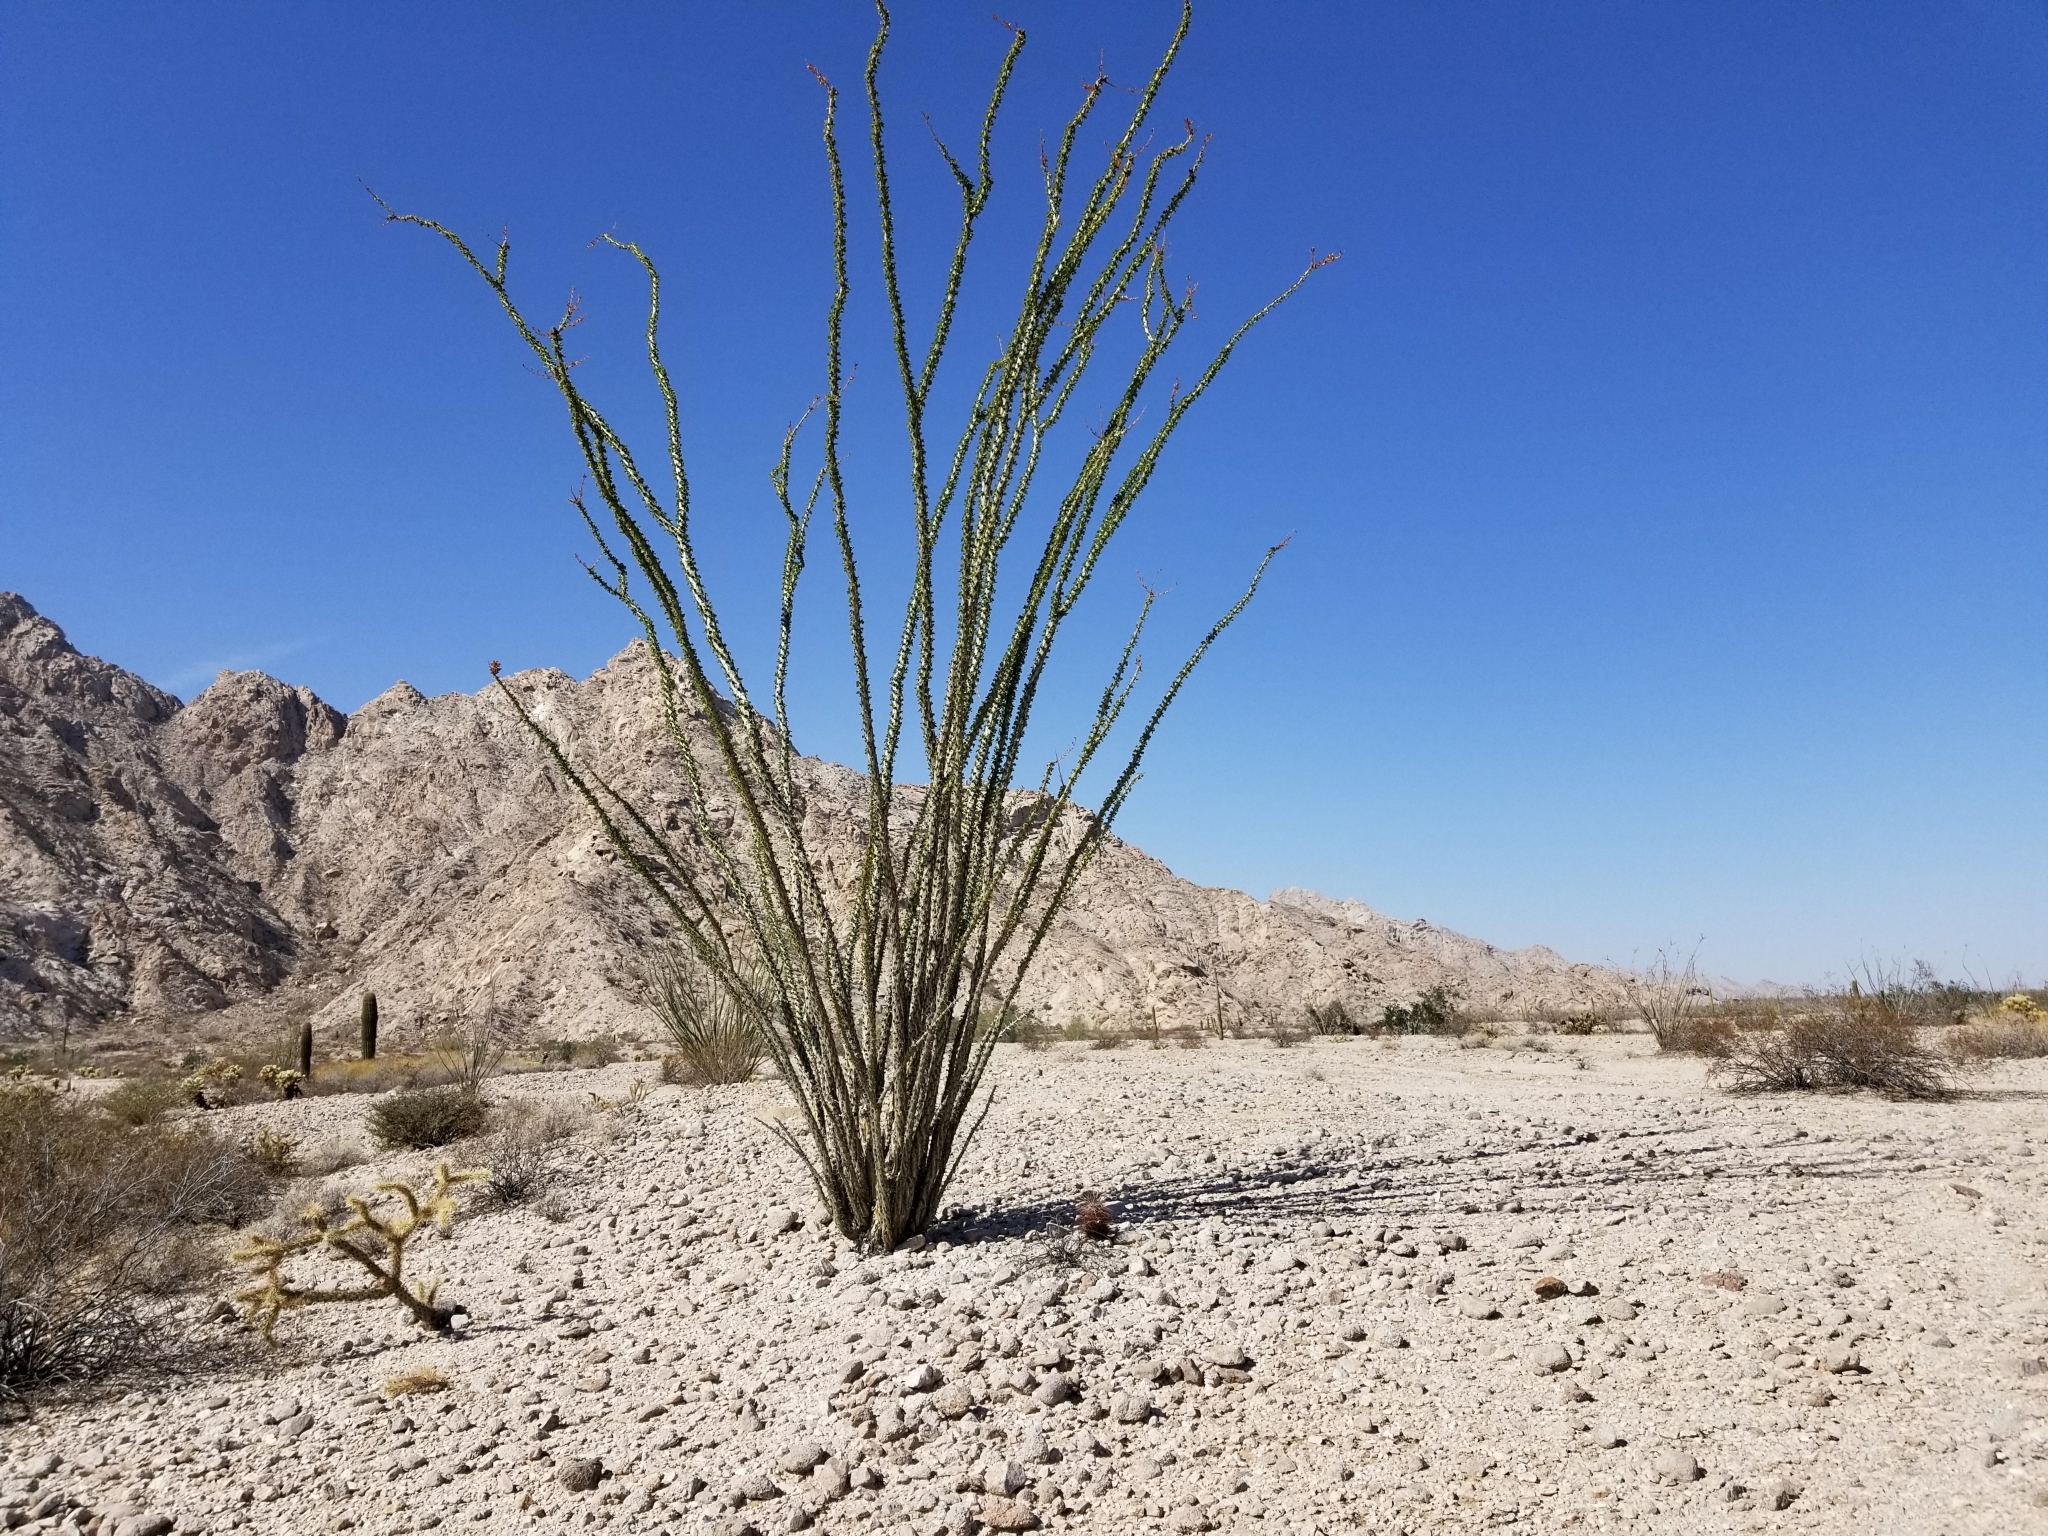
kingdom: Plantae
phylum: Tracheophyta
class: Magnoliopsida
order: Ericales
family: Fouquieriaceae
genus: Fouquieria
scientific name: Fouquieria splendens
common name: Vine-cactus
